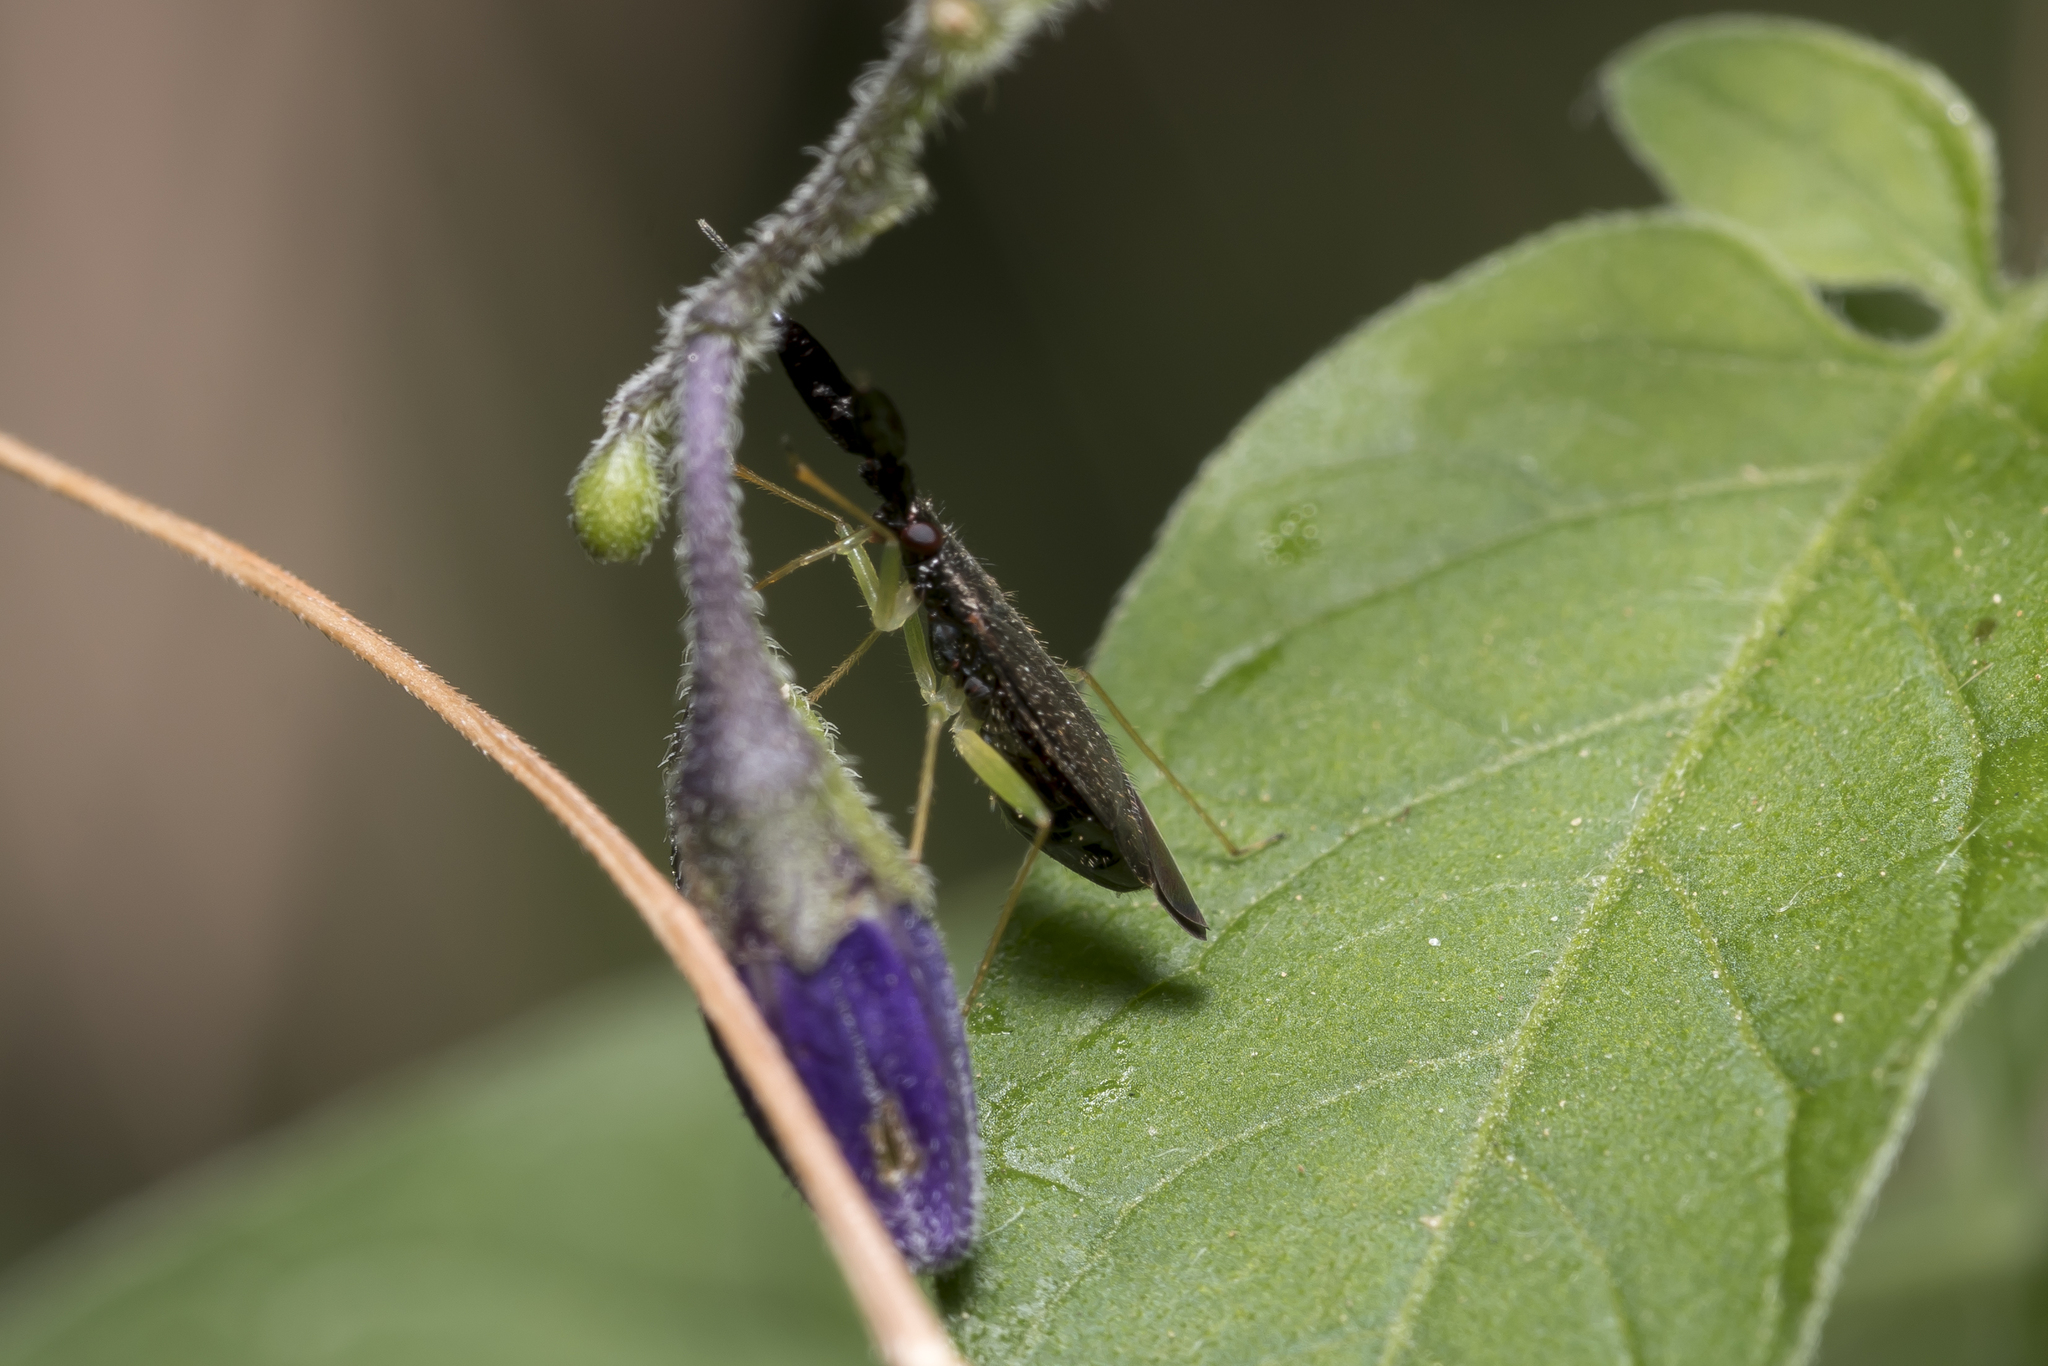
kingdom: Animalia
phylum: Arthropoda
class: Insecta
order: Hemiptera
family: Miridae
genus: Heterotoma
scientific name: Heterotoma planicornis
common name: Plant bug
